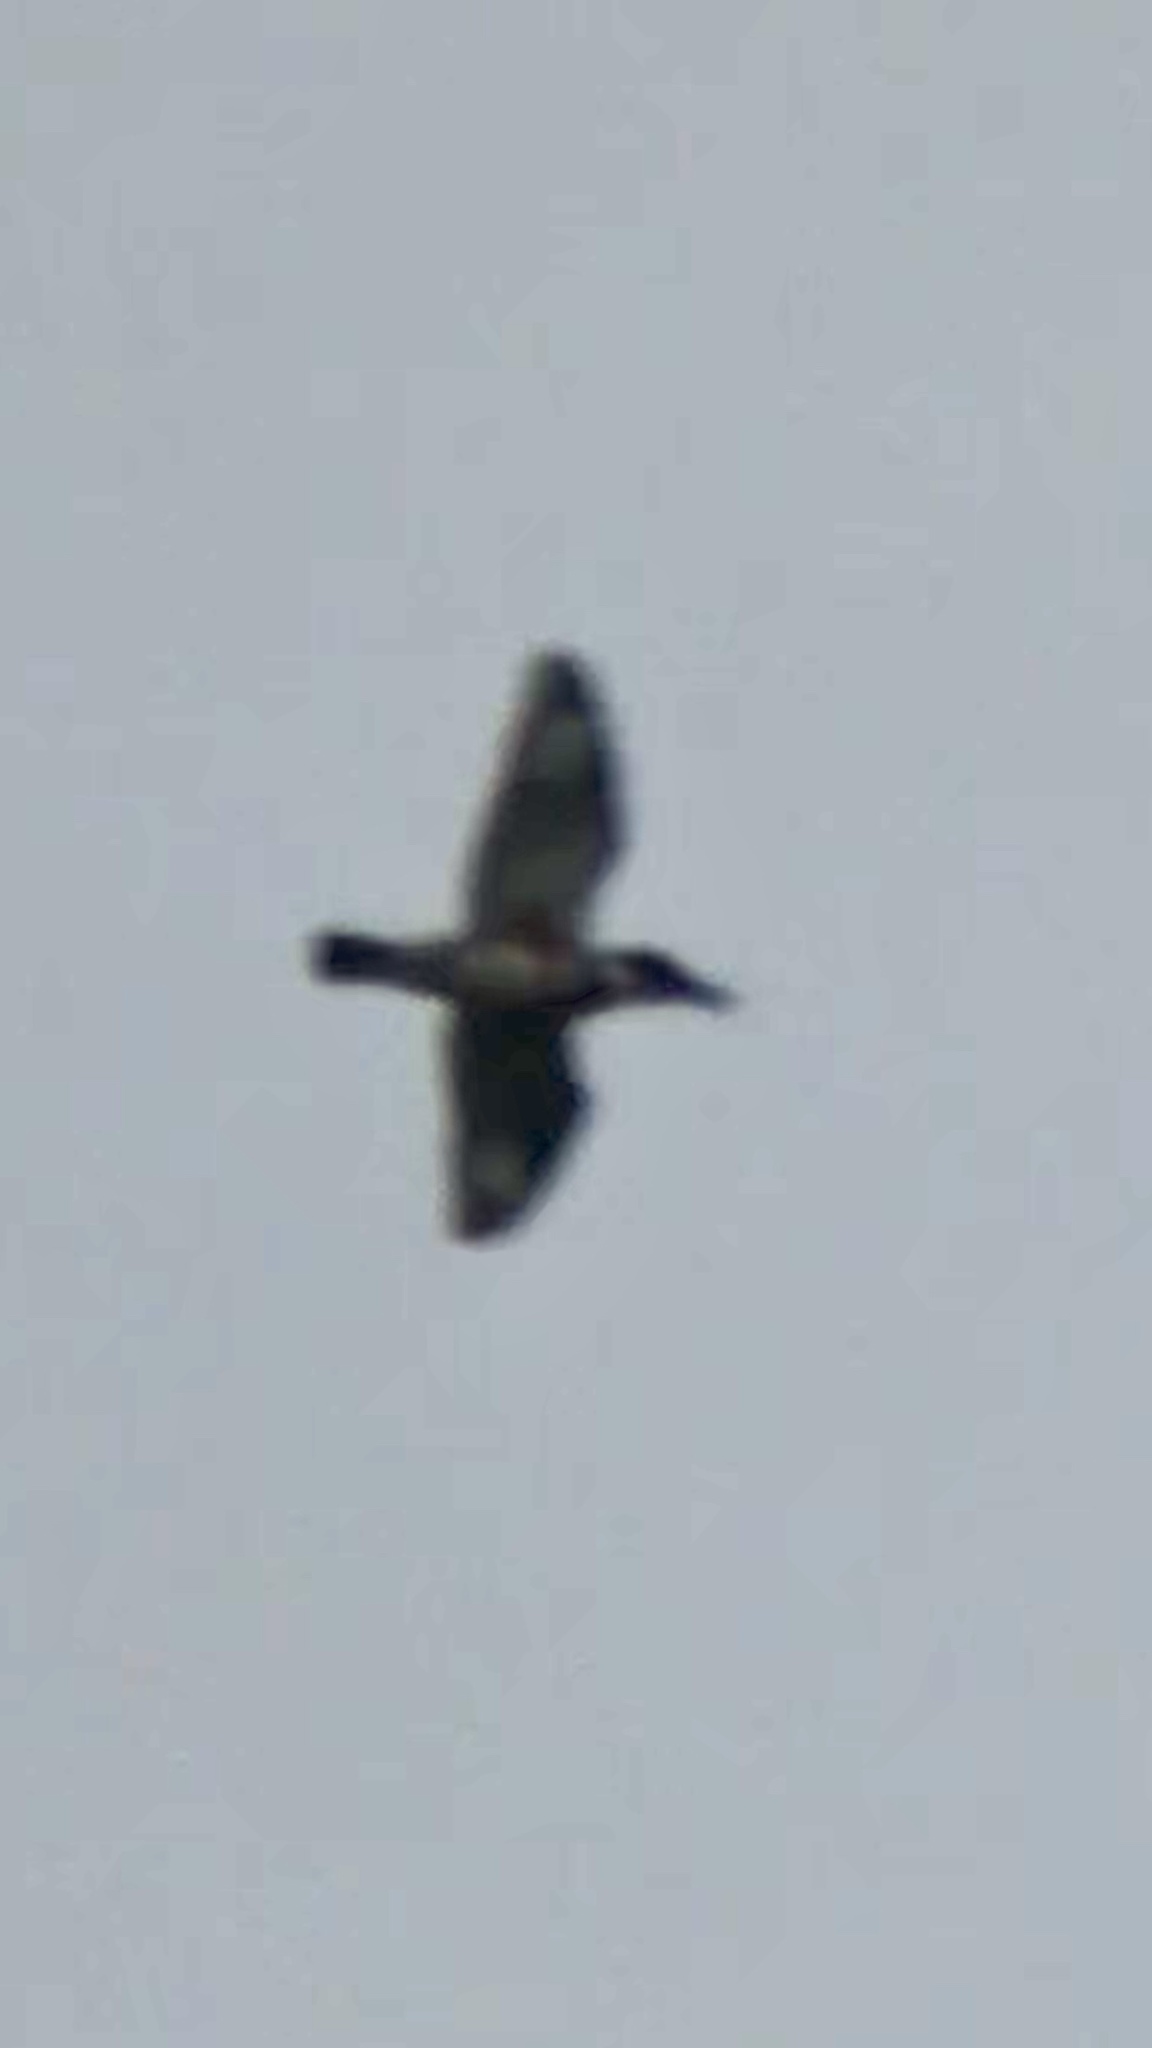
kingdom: Animalia
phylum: Chordata
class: Aves
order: Coraciiformes
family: Alcedinidae
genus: Megaceryle
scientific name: Megaceryle alcyon
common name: Belted kingfisher
